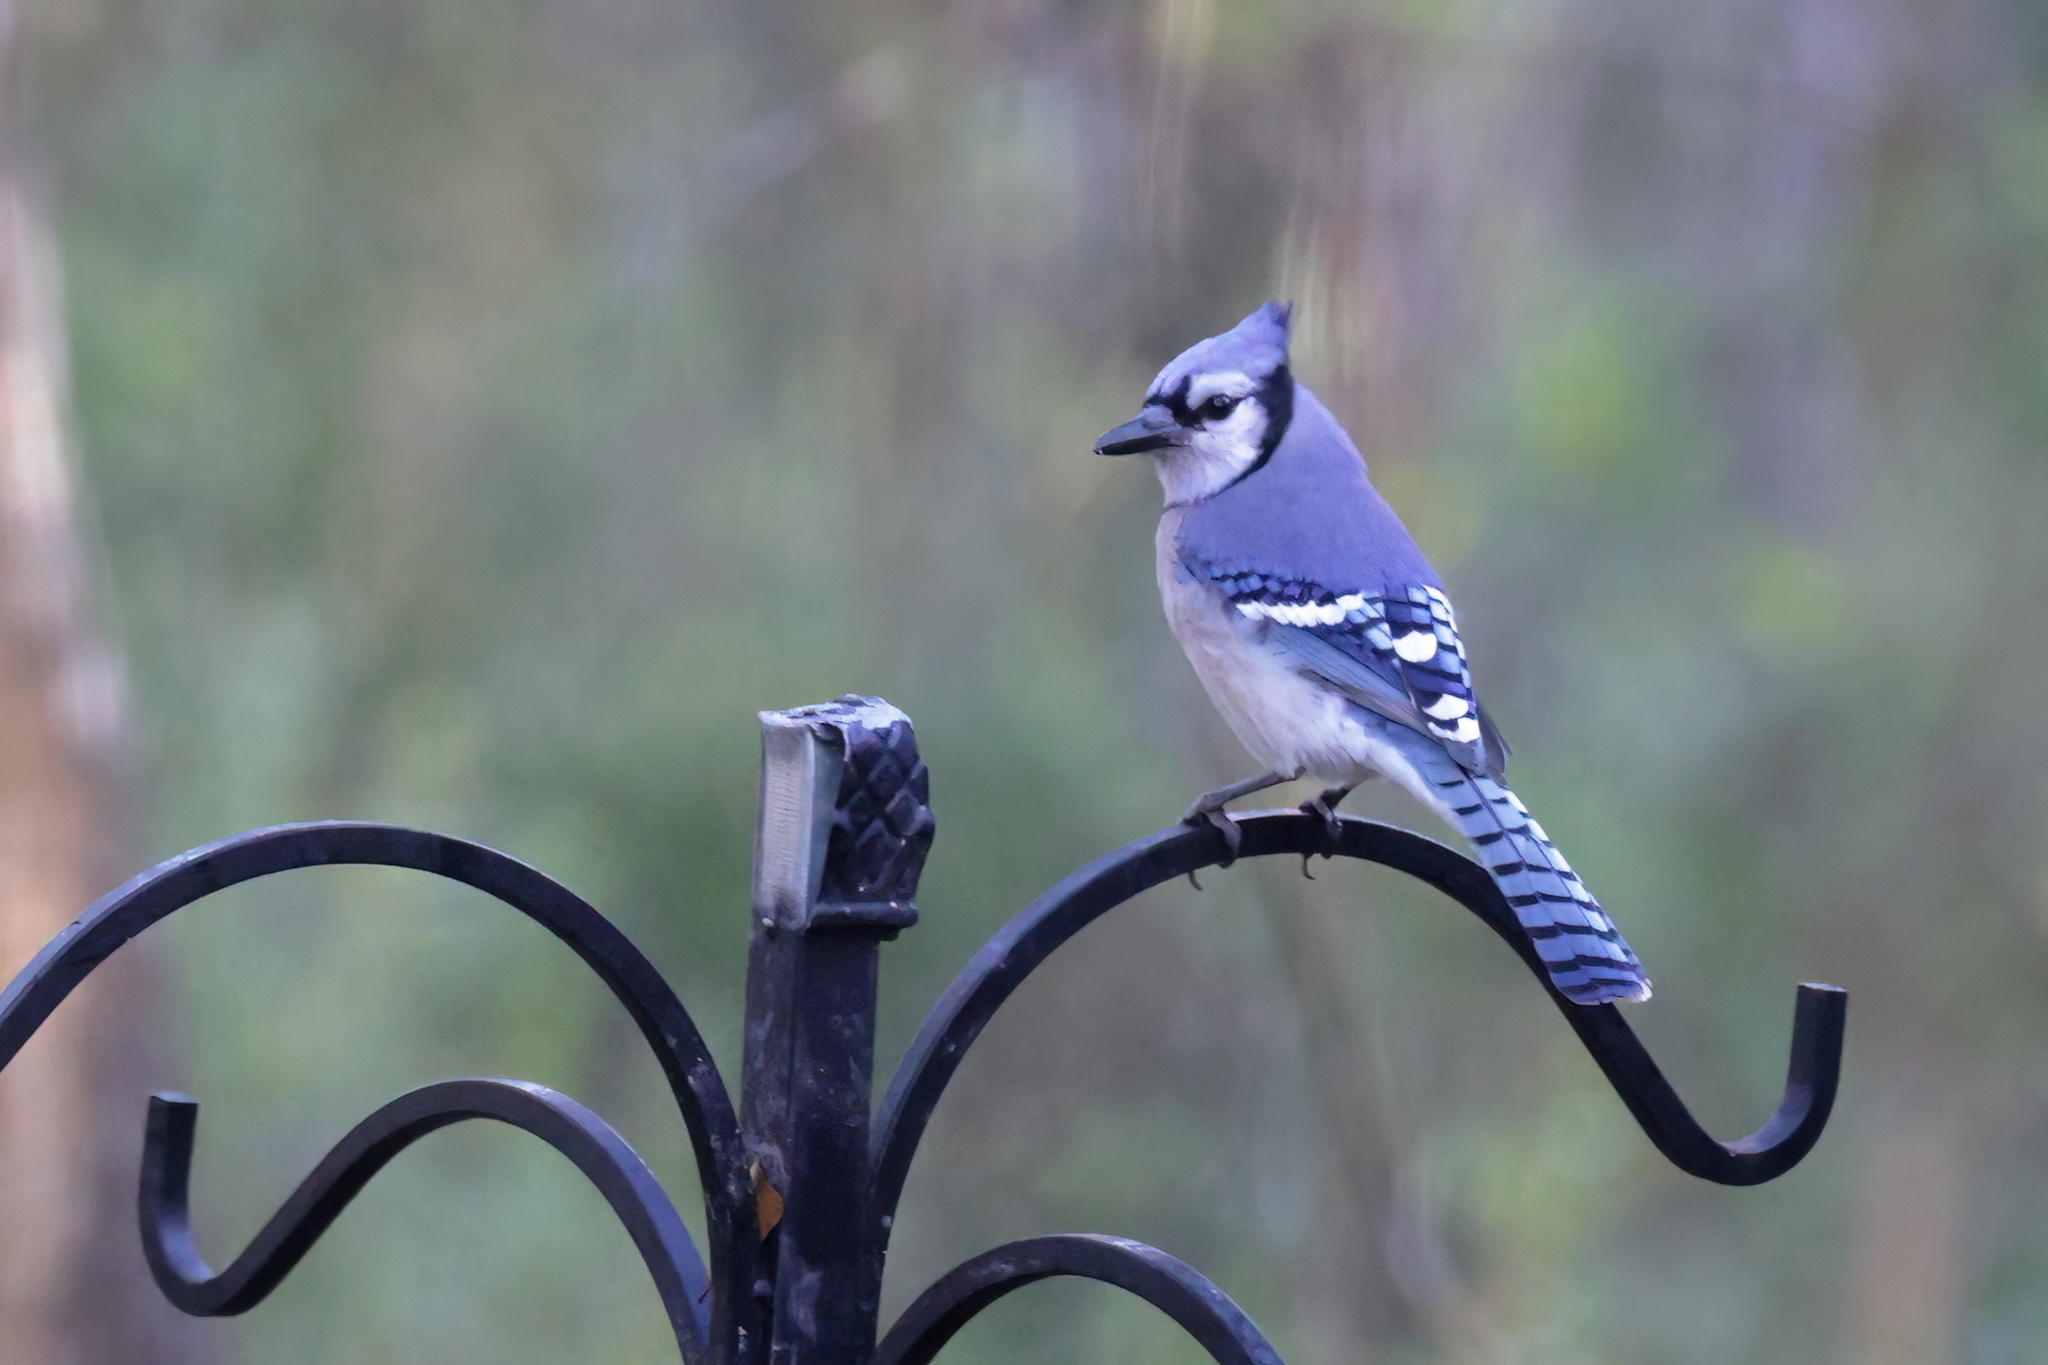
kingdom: Animalia
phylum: Chordata
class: Aves
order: Passeriformes
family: Corvidae
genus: Cyanocitta
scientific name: Cyanocitta cristata
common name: Blue jay
